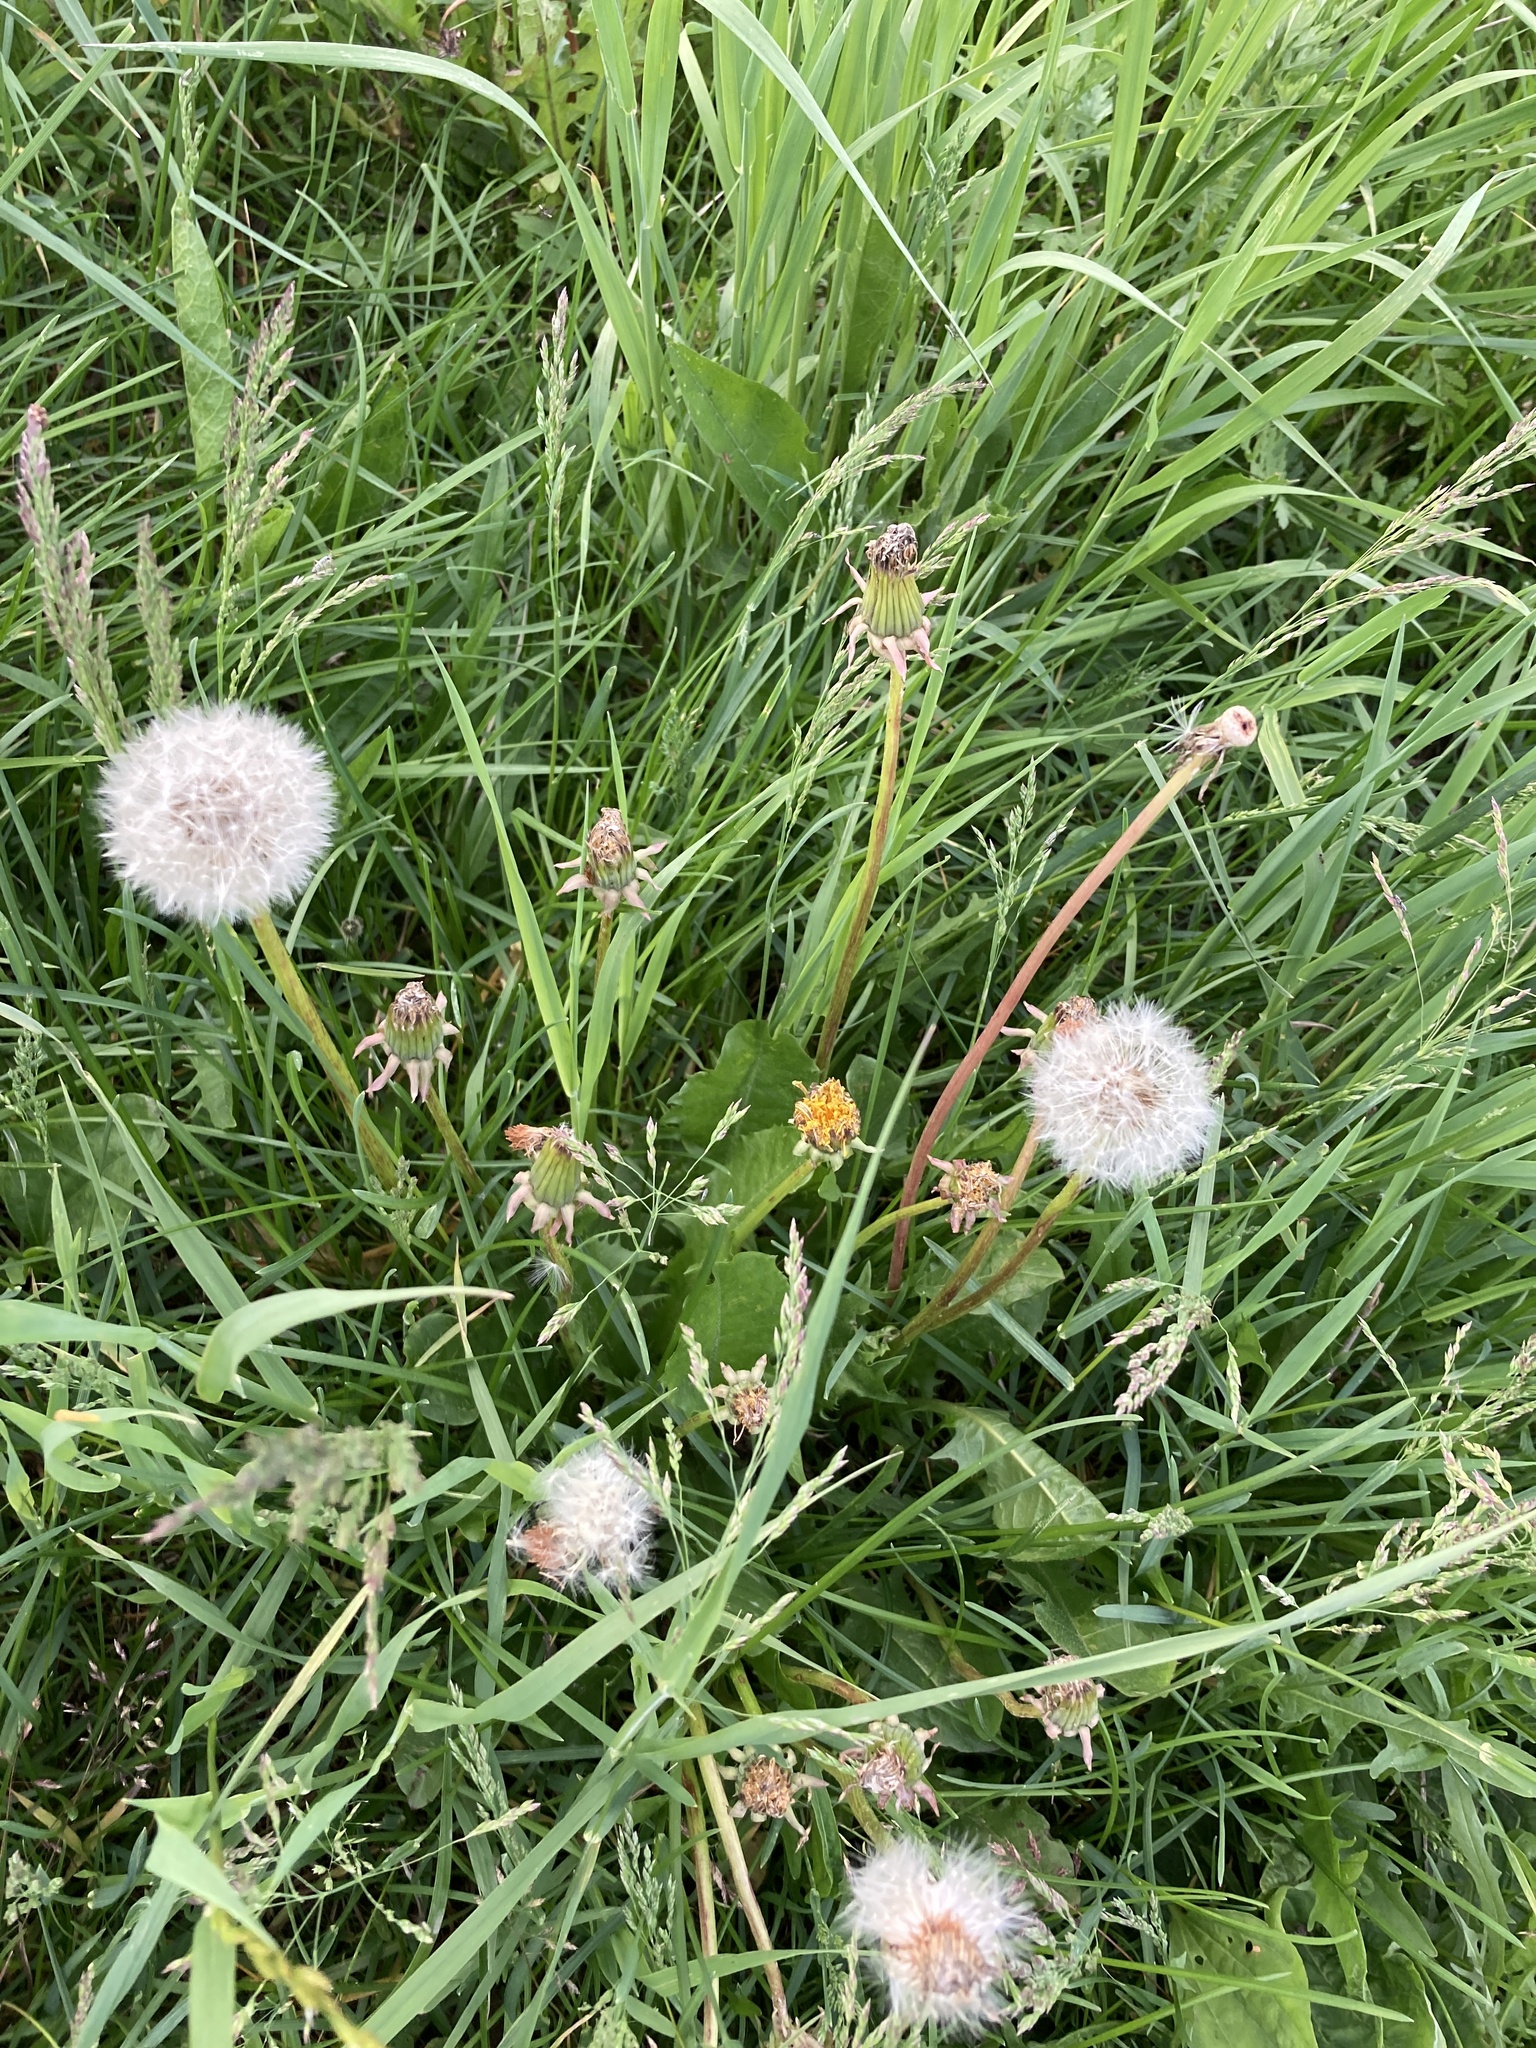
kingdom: Plantae
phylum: Tracheophyta
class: Magnoliopsida
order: Asterales
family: Asteraceae
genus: Taraxacum
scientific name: Taraxacum officinale
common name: Common dandelion
